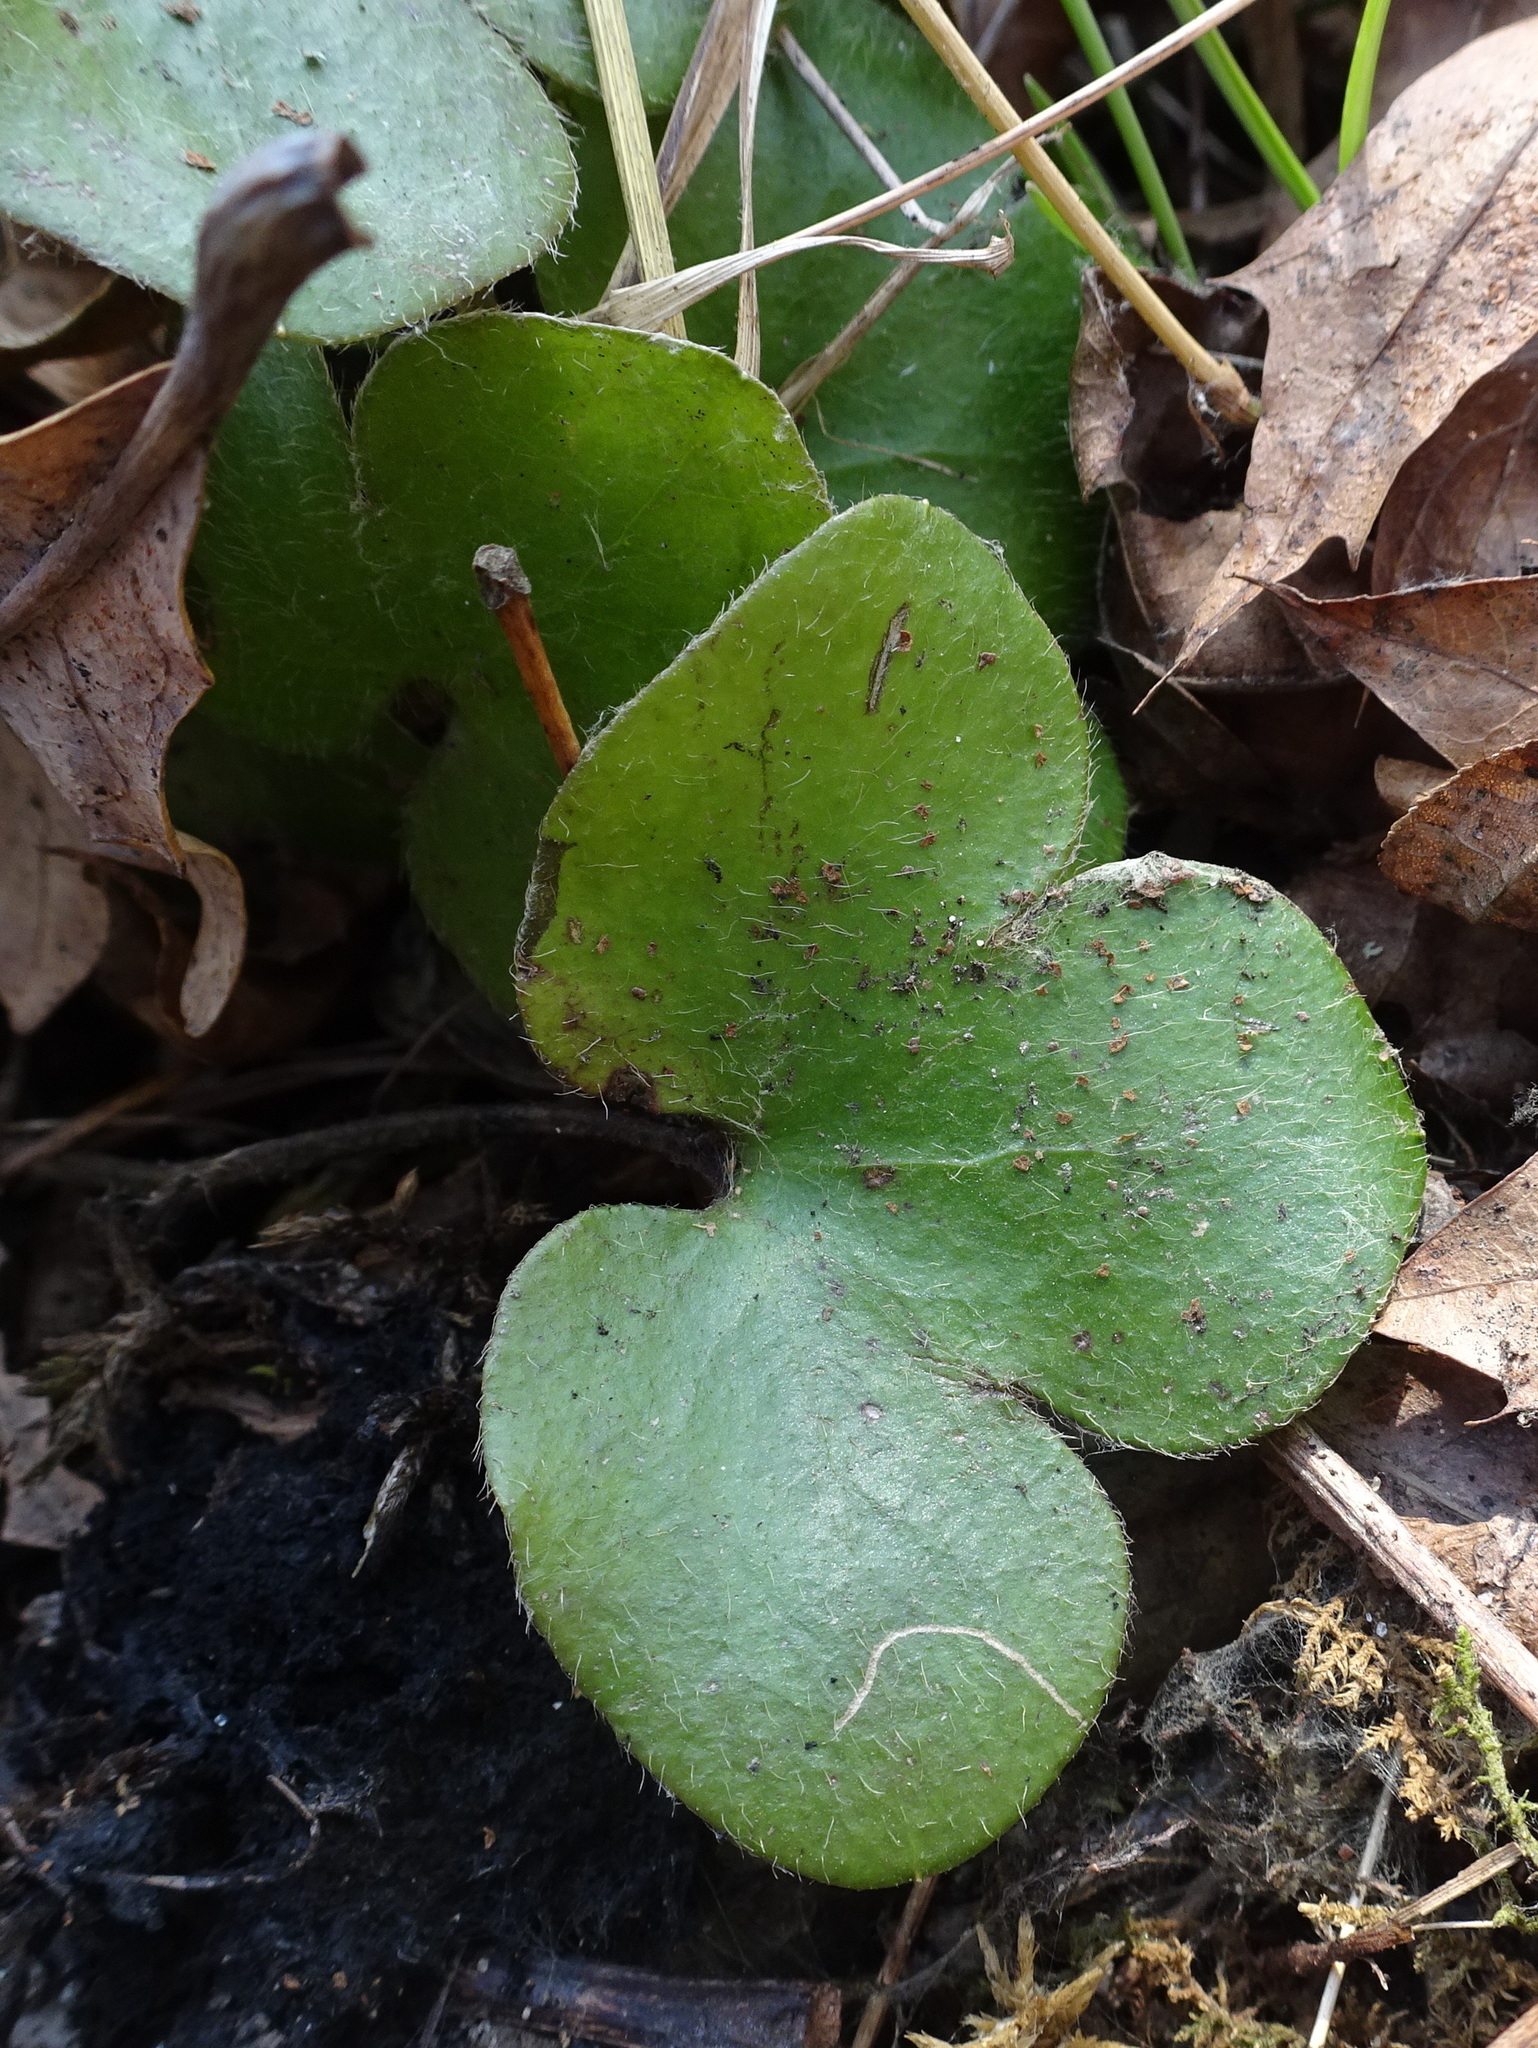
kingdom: Plantae
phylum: Tracheophyta
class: Magnoliopsida
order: Ranunculales
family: Ranunculaceae
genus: Hepatica
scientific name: Hepatica americana
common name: American hepatica
